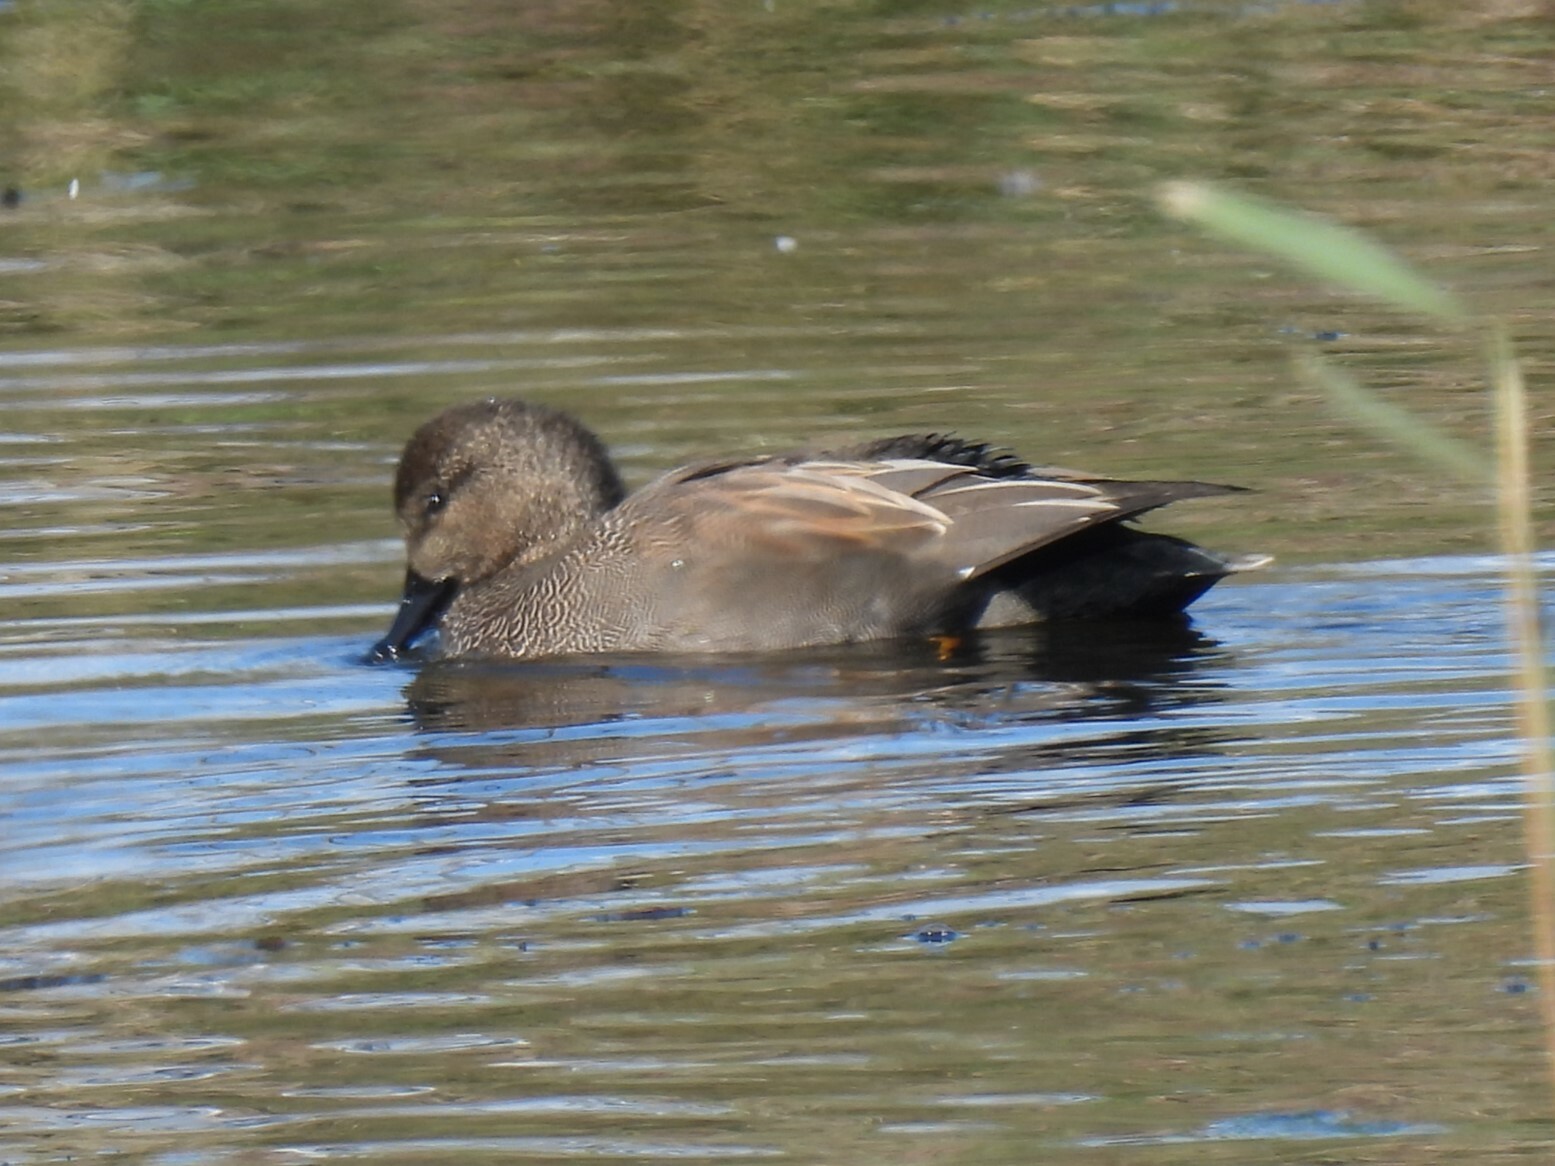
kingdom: Animalia
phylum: Chordata
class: Aves
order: Anseriformes
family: Anatidae
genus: Mareca
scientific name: Mareca strepera
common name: Gadwall
